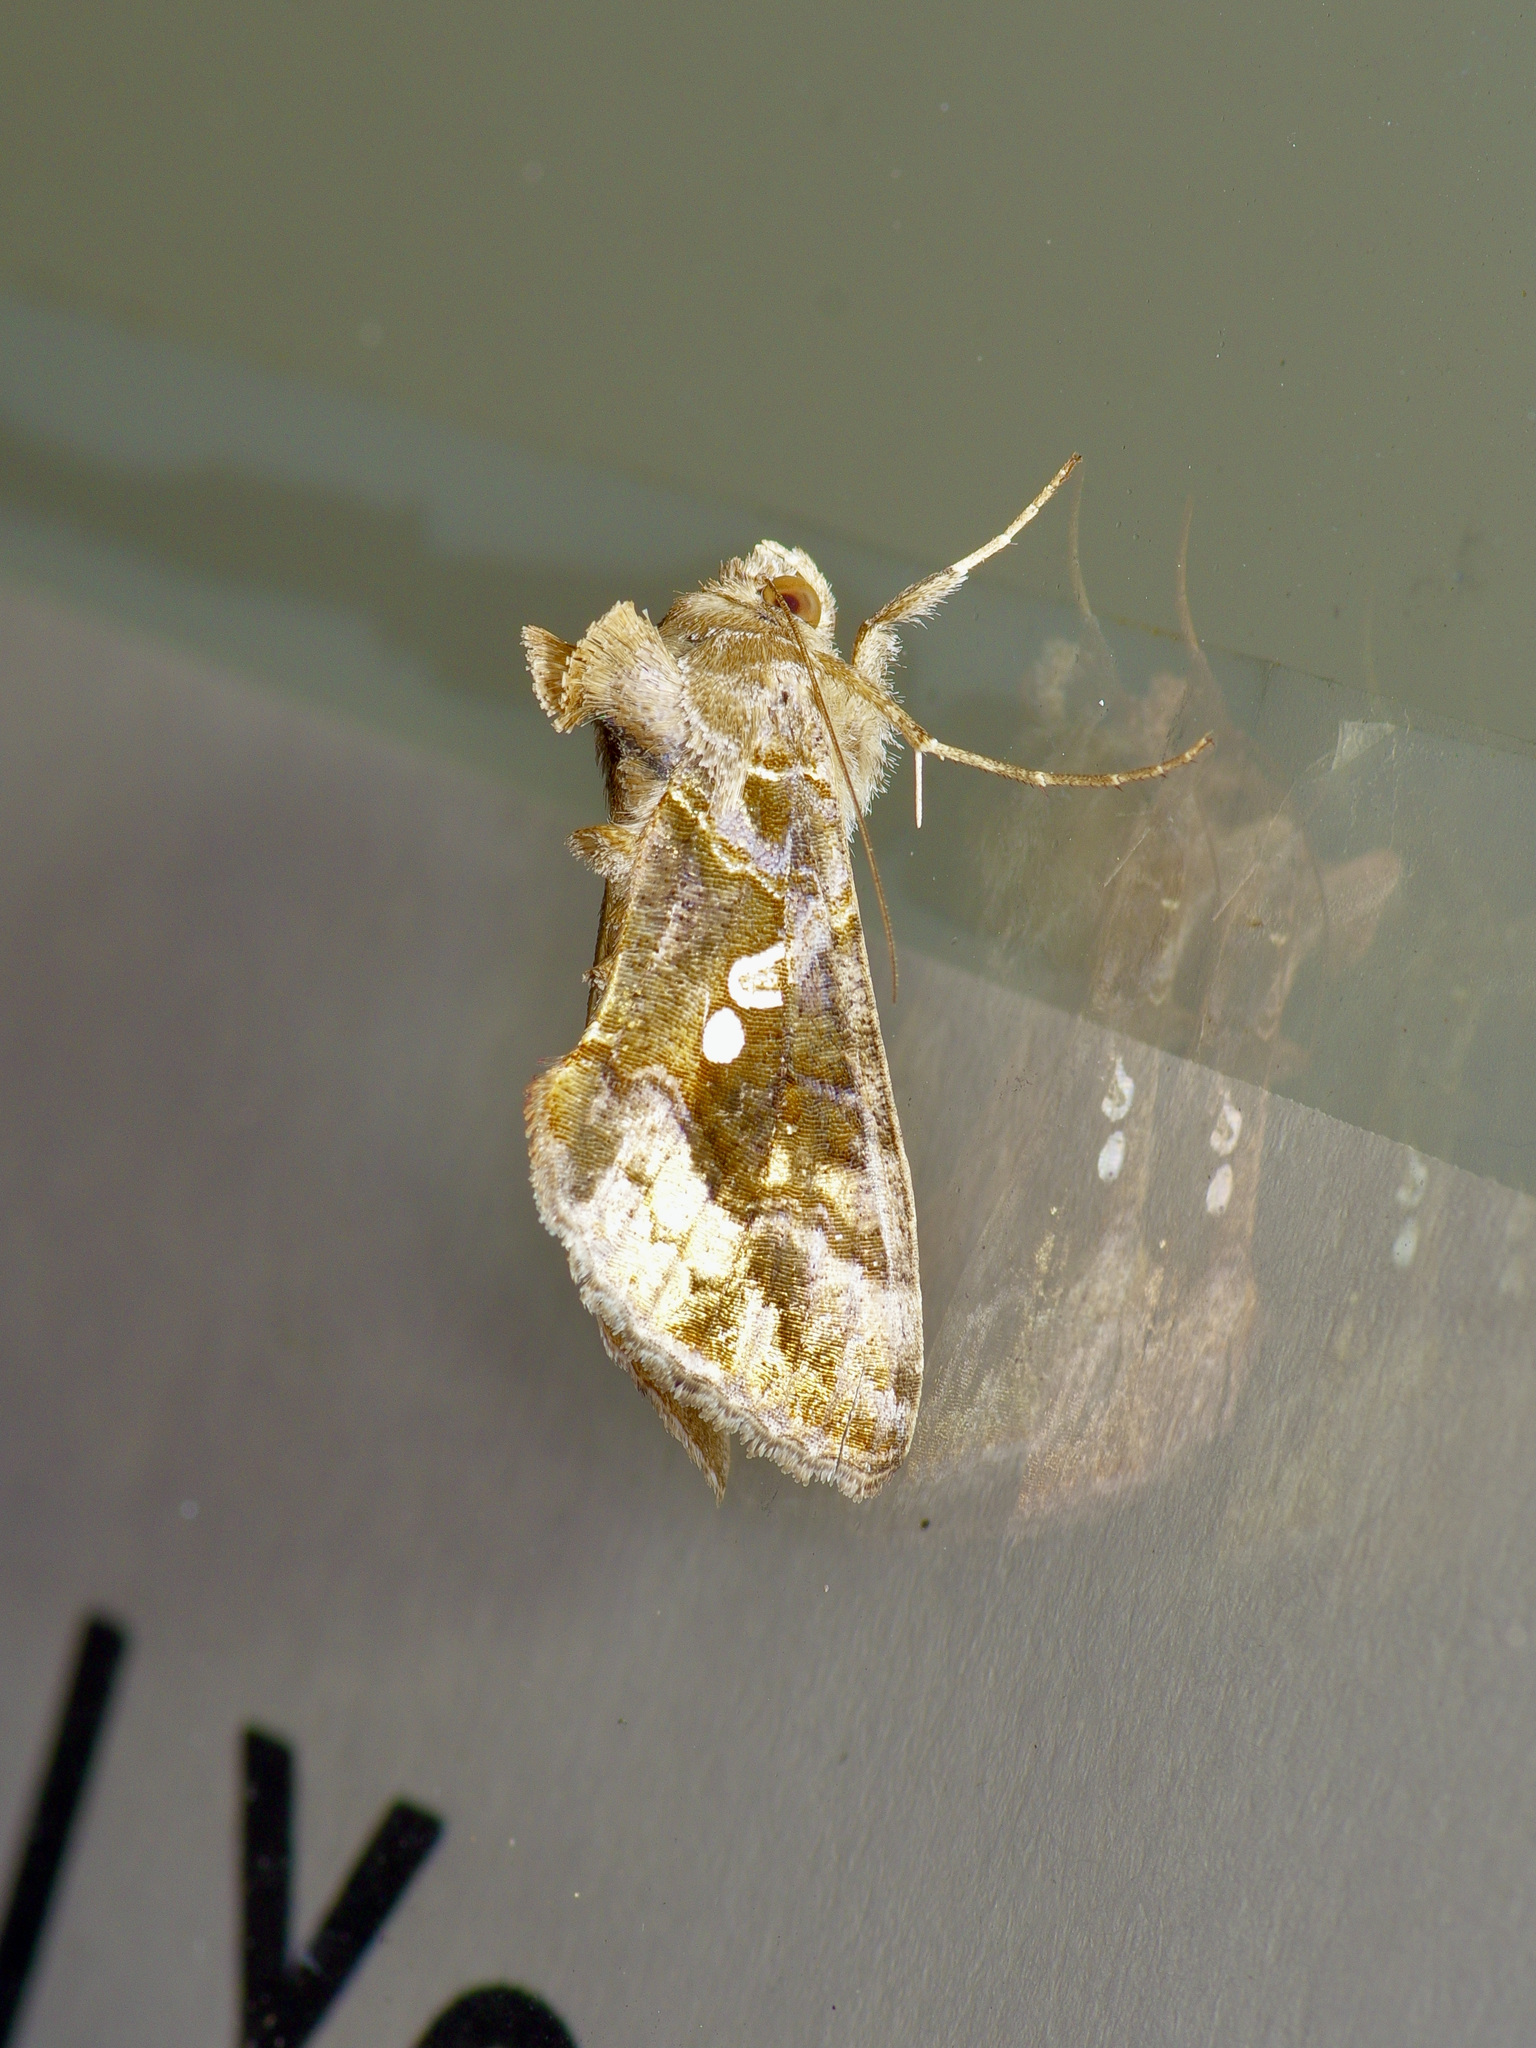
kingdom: Animalia
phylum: Arthropoda
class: Insecta
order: Lepidoptera
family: Noctuidae
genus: Chrysodeixis
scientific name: Chrysodeixis includens
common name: Cutworm moth
